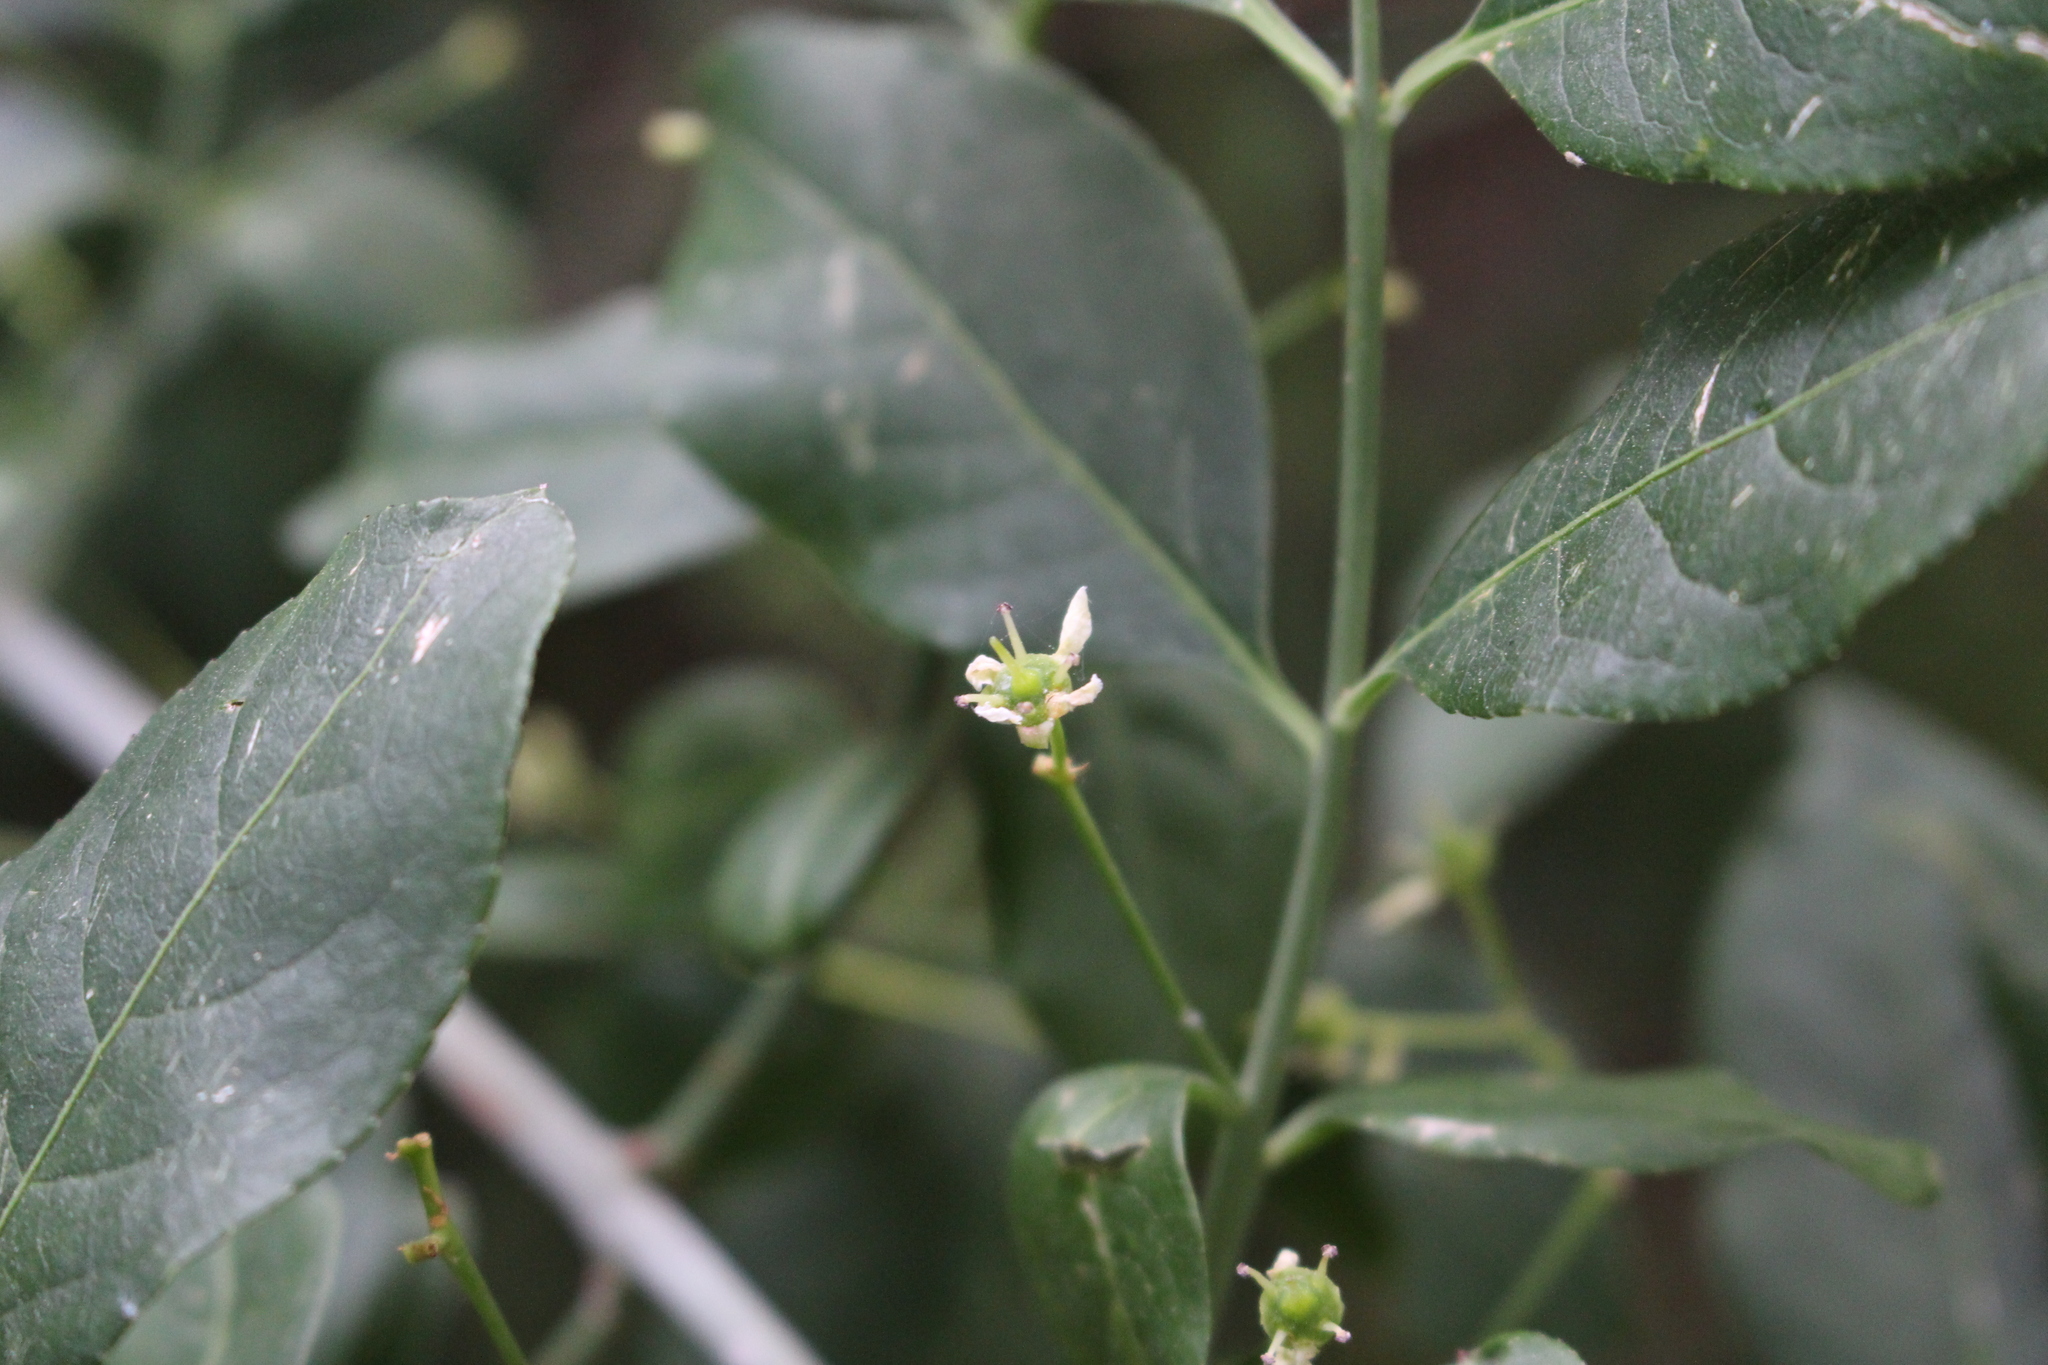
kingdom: Plantae
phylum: Tracheophyta
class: Magnoliopsida
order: Celastrales
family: Celastraceae
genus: Euonymus
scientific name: Euonymus europaeus
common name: Spindle
